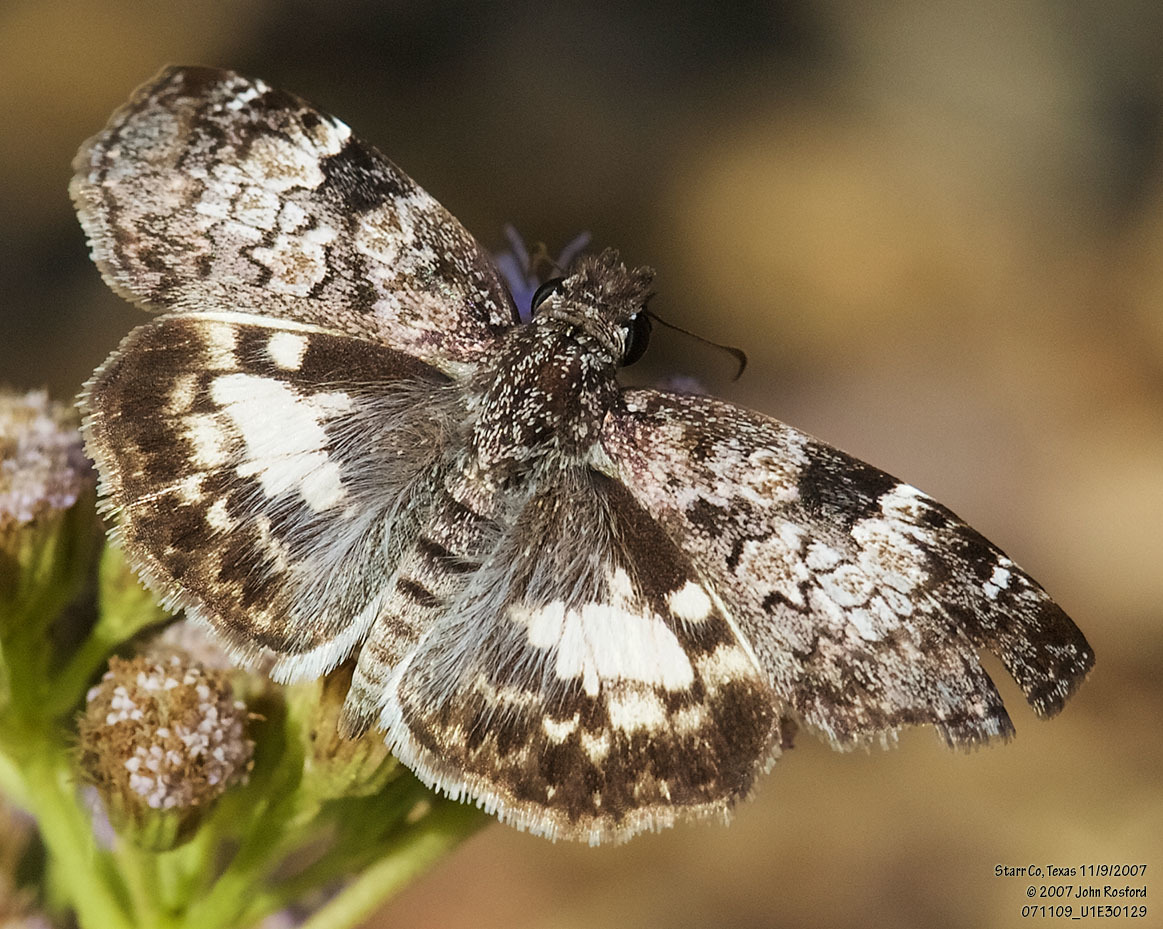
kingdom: Animalia
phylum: Arthropoda
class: Insecta
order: Lepidoptera
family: Hesperiidae
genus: Chiothion
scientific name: Chiothion georgina
